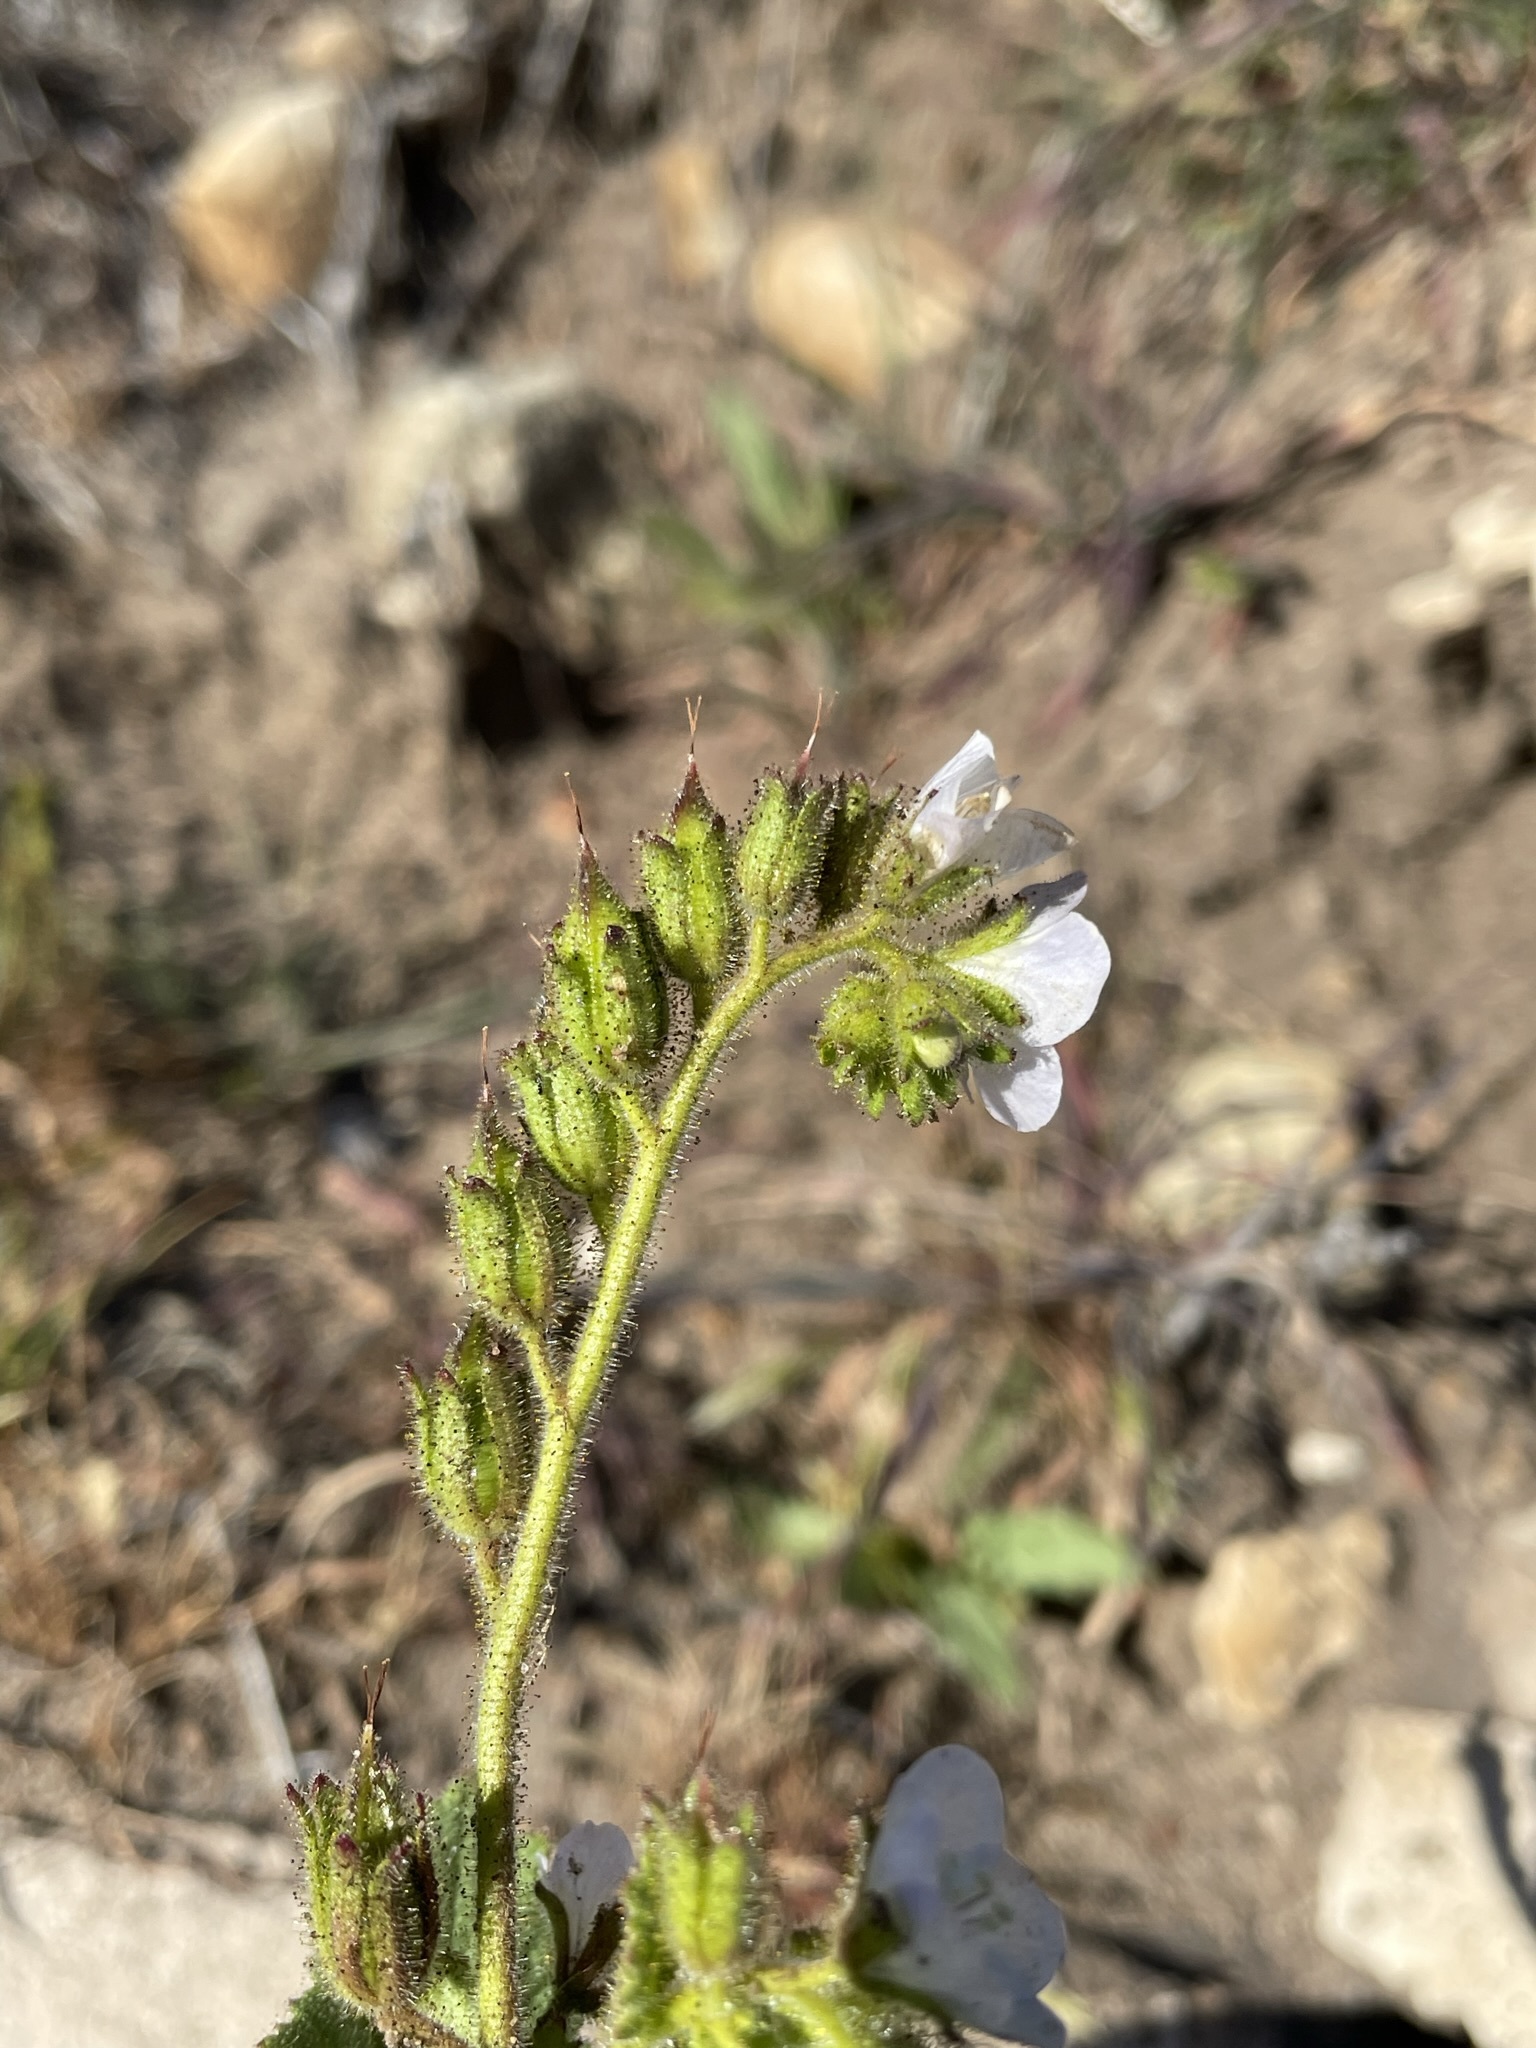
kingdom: Plantae
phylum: Tracheophyta
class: Magnoliopsida
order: Boraginales
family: Hydrophyllaceae
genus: Phacelia
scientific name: Phacelia viscida
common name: Sticky phacelia
